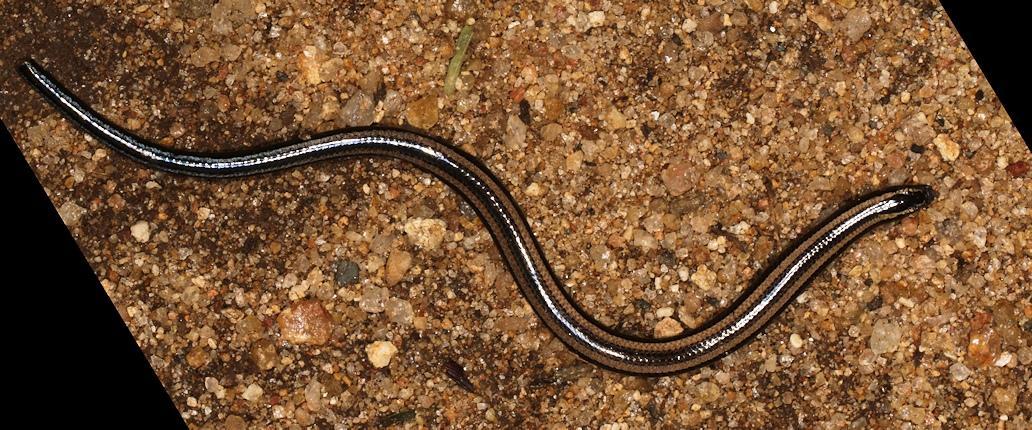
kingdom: Animalia
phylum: Chordata
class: Squamata
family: Scincidae
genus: Scelotes
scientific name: Scelotes bidigittatus
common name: Lowveld dwarf burrowing skink
